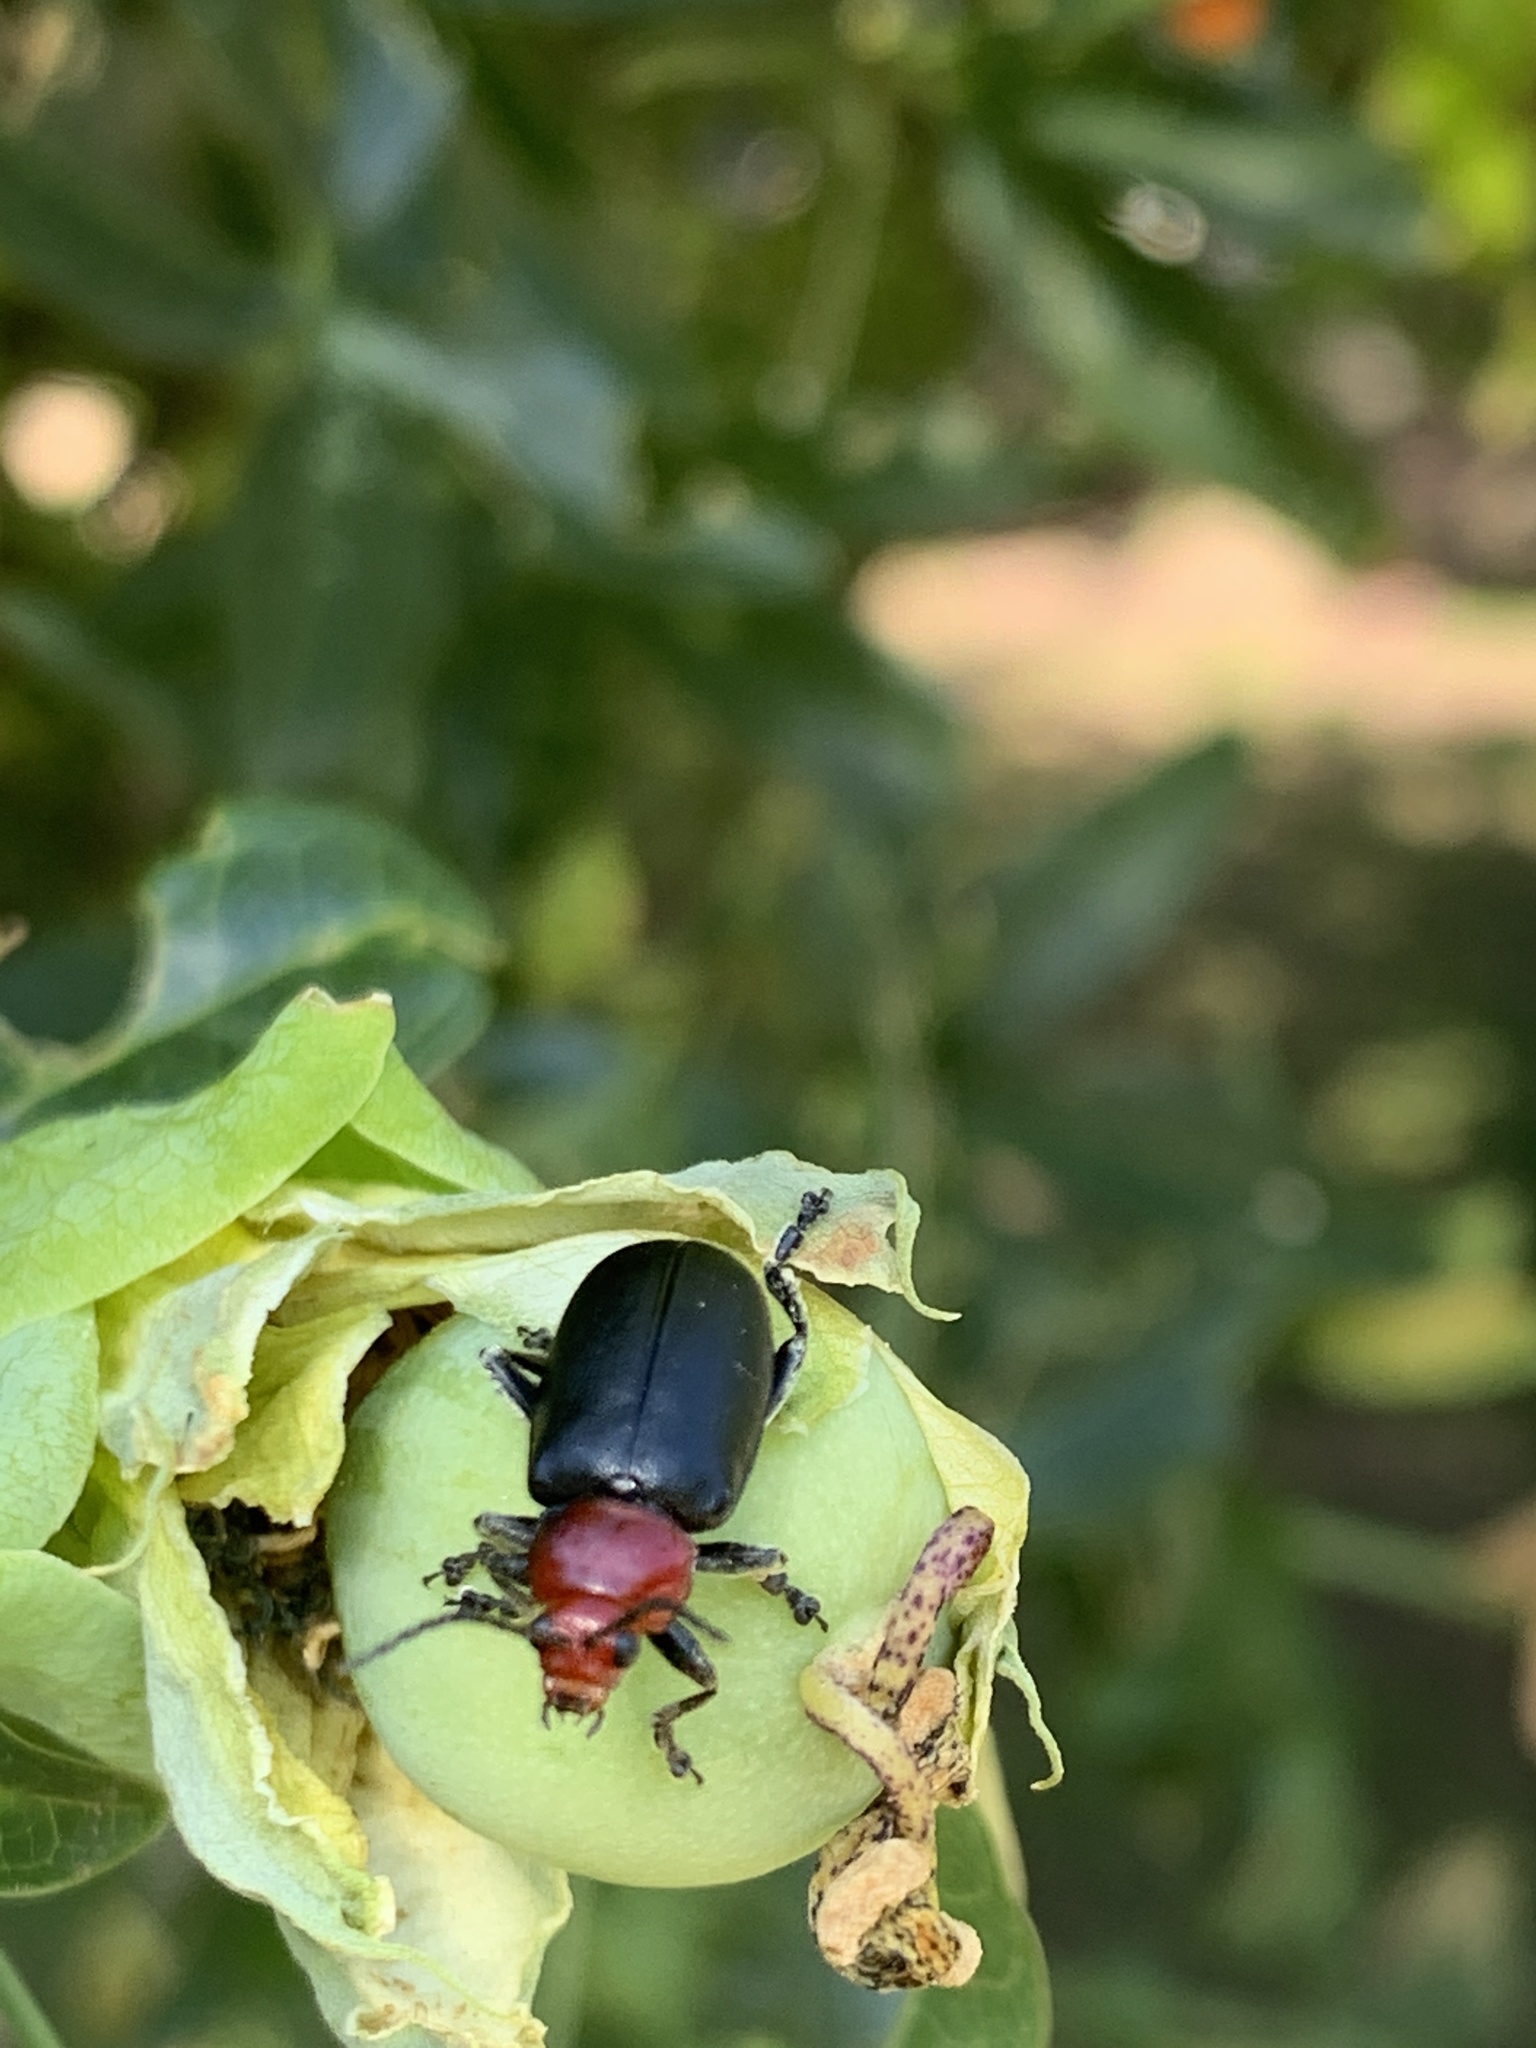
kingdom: Animalia
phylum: Arthropoda
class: Insecta
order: Coleoptera
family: Chrysomelidae
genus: Cacoscelis
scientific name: Cacoscelis
